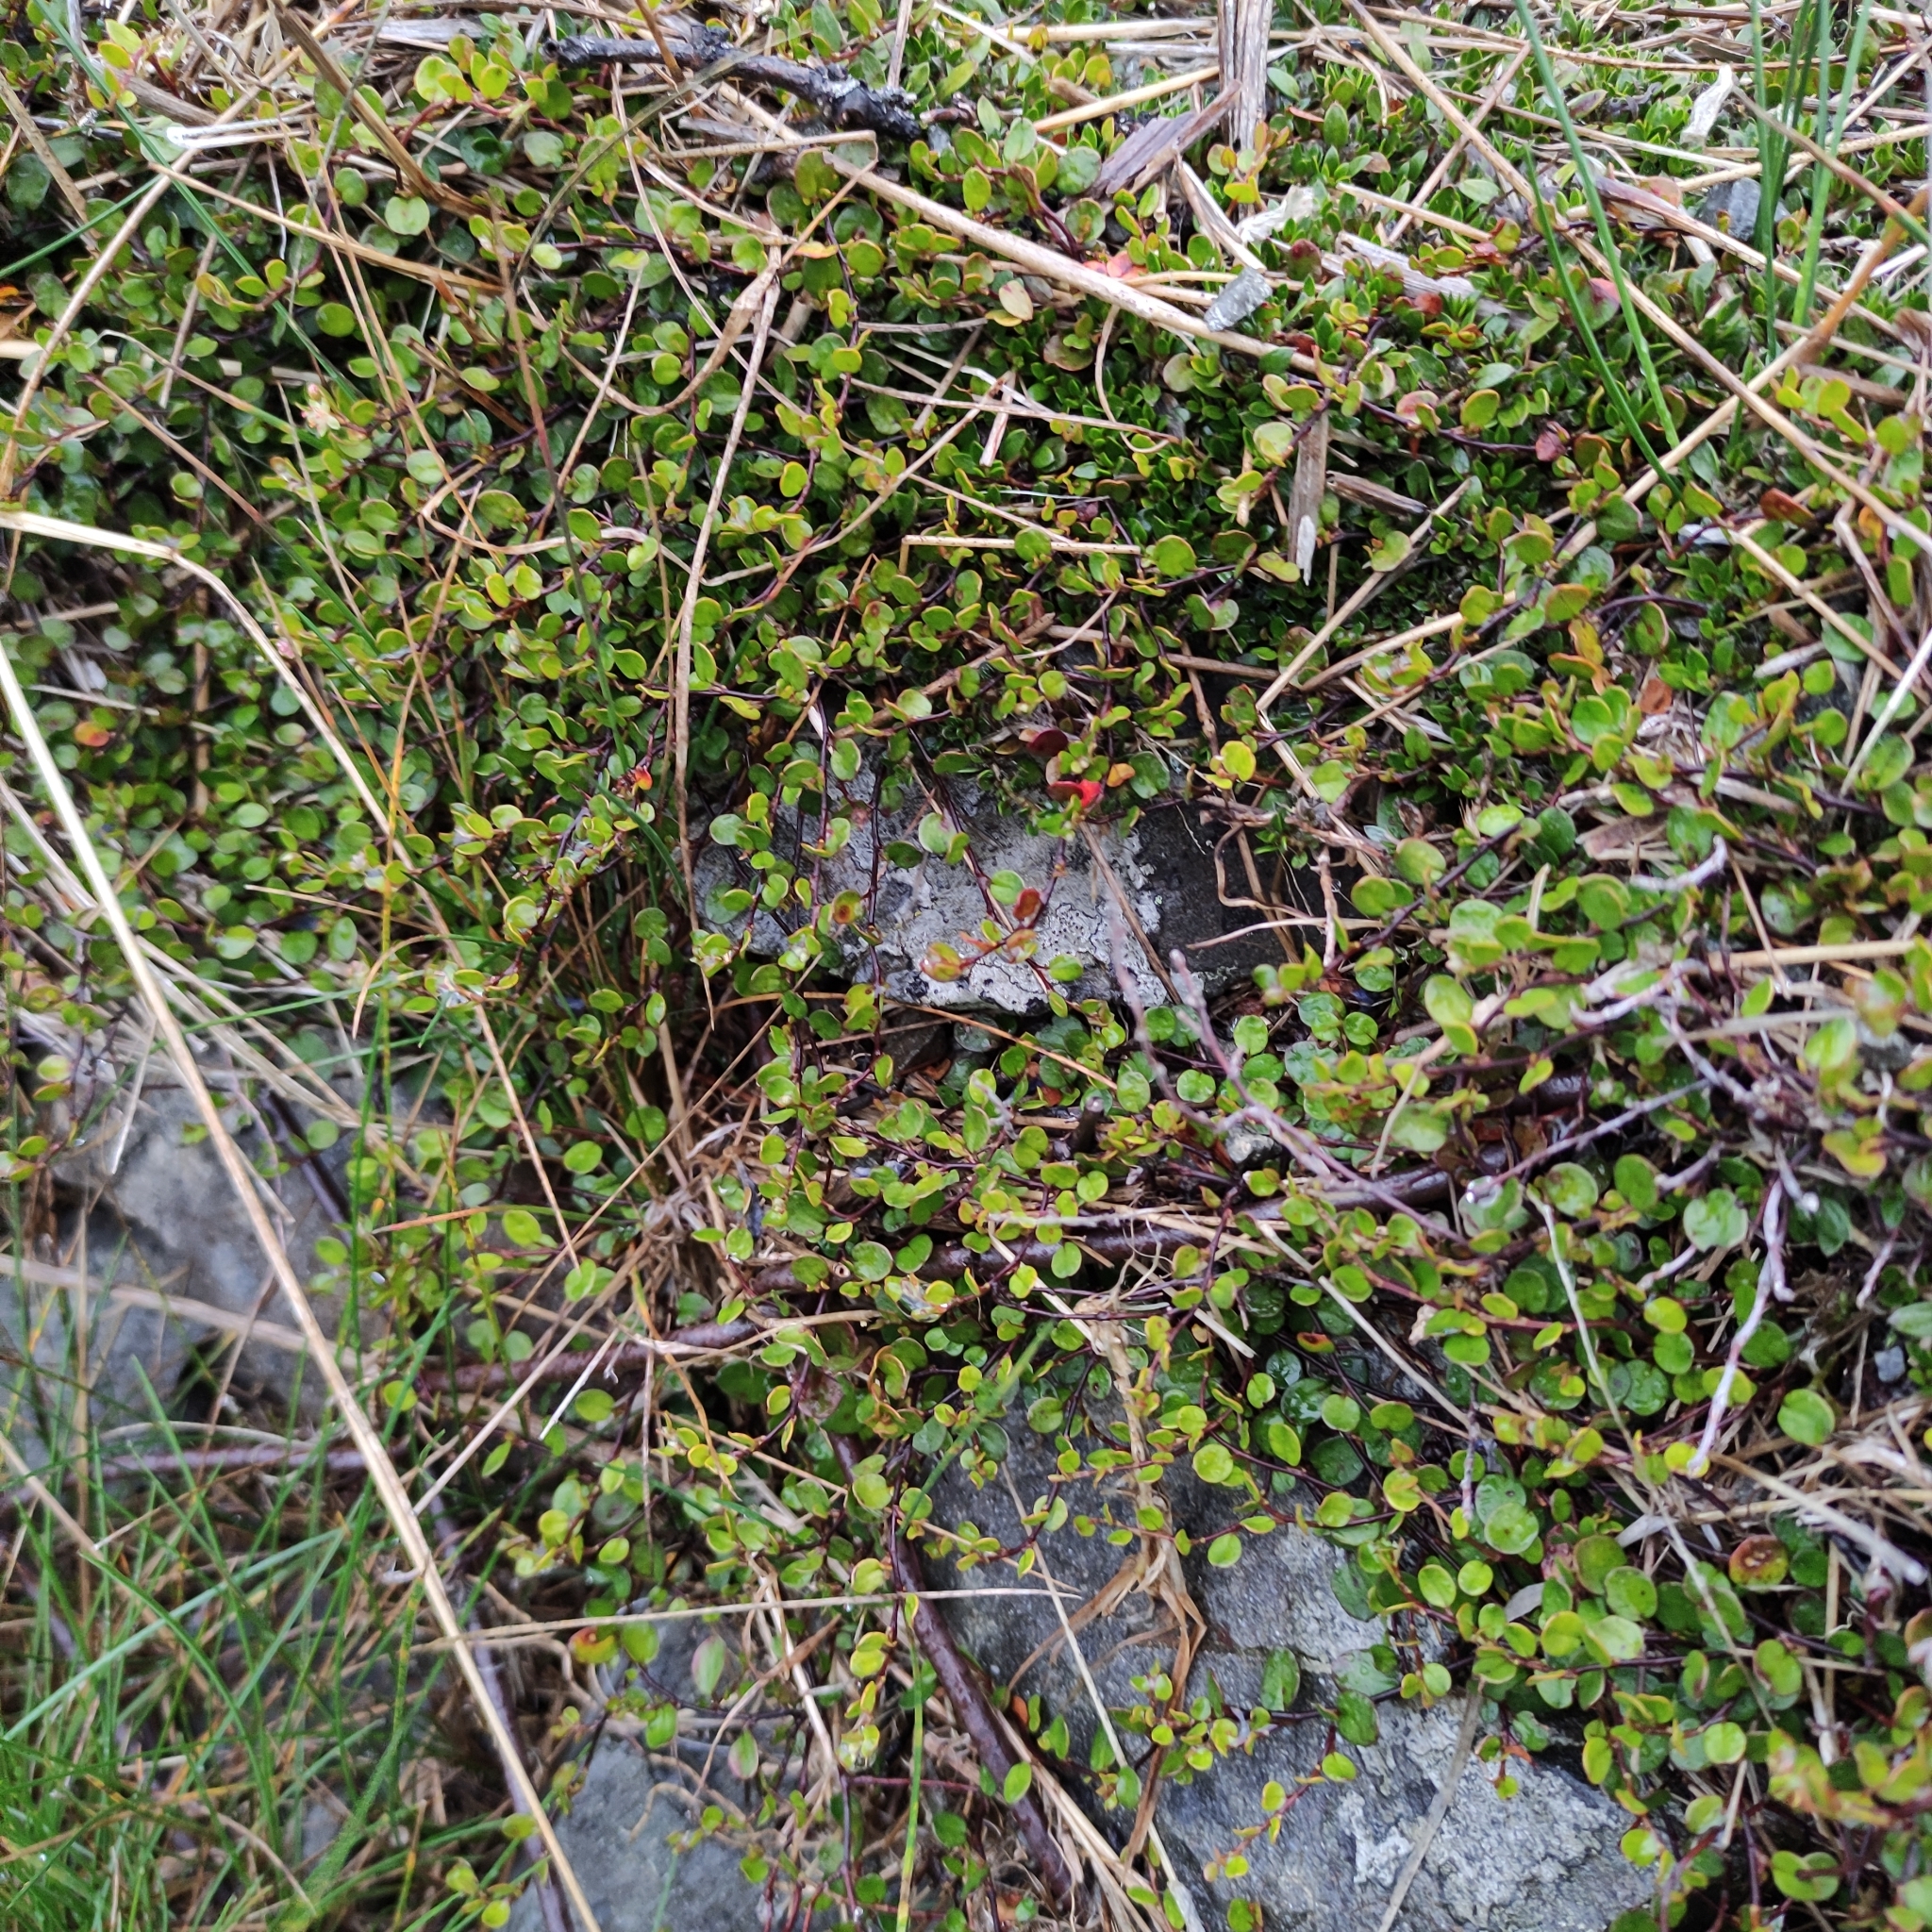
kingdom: Plantae
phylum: Tracheophyta
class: Magnoliopsida
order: Caryophyllales
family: Polygonaceae
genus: Muehlenbeckia
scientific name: Muehlenbeckia axillaris
